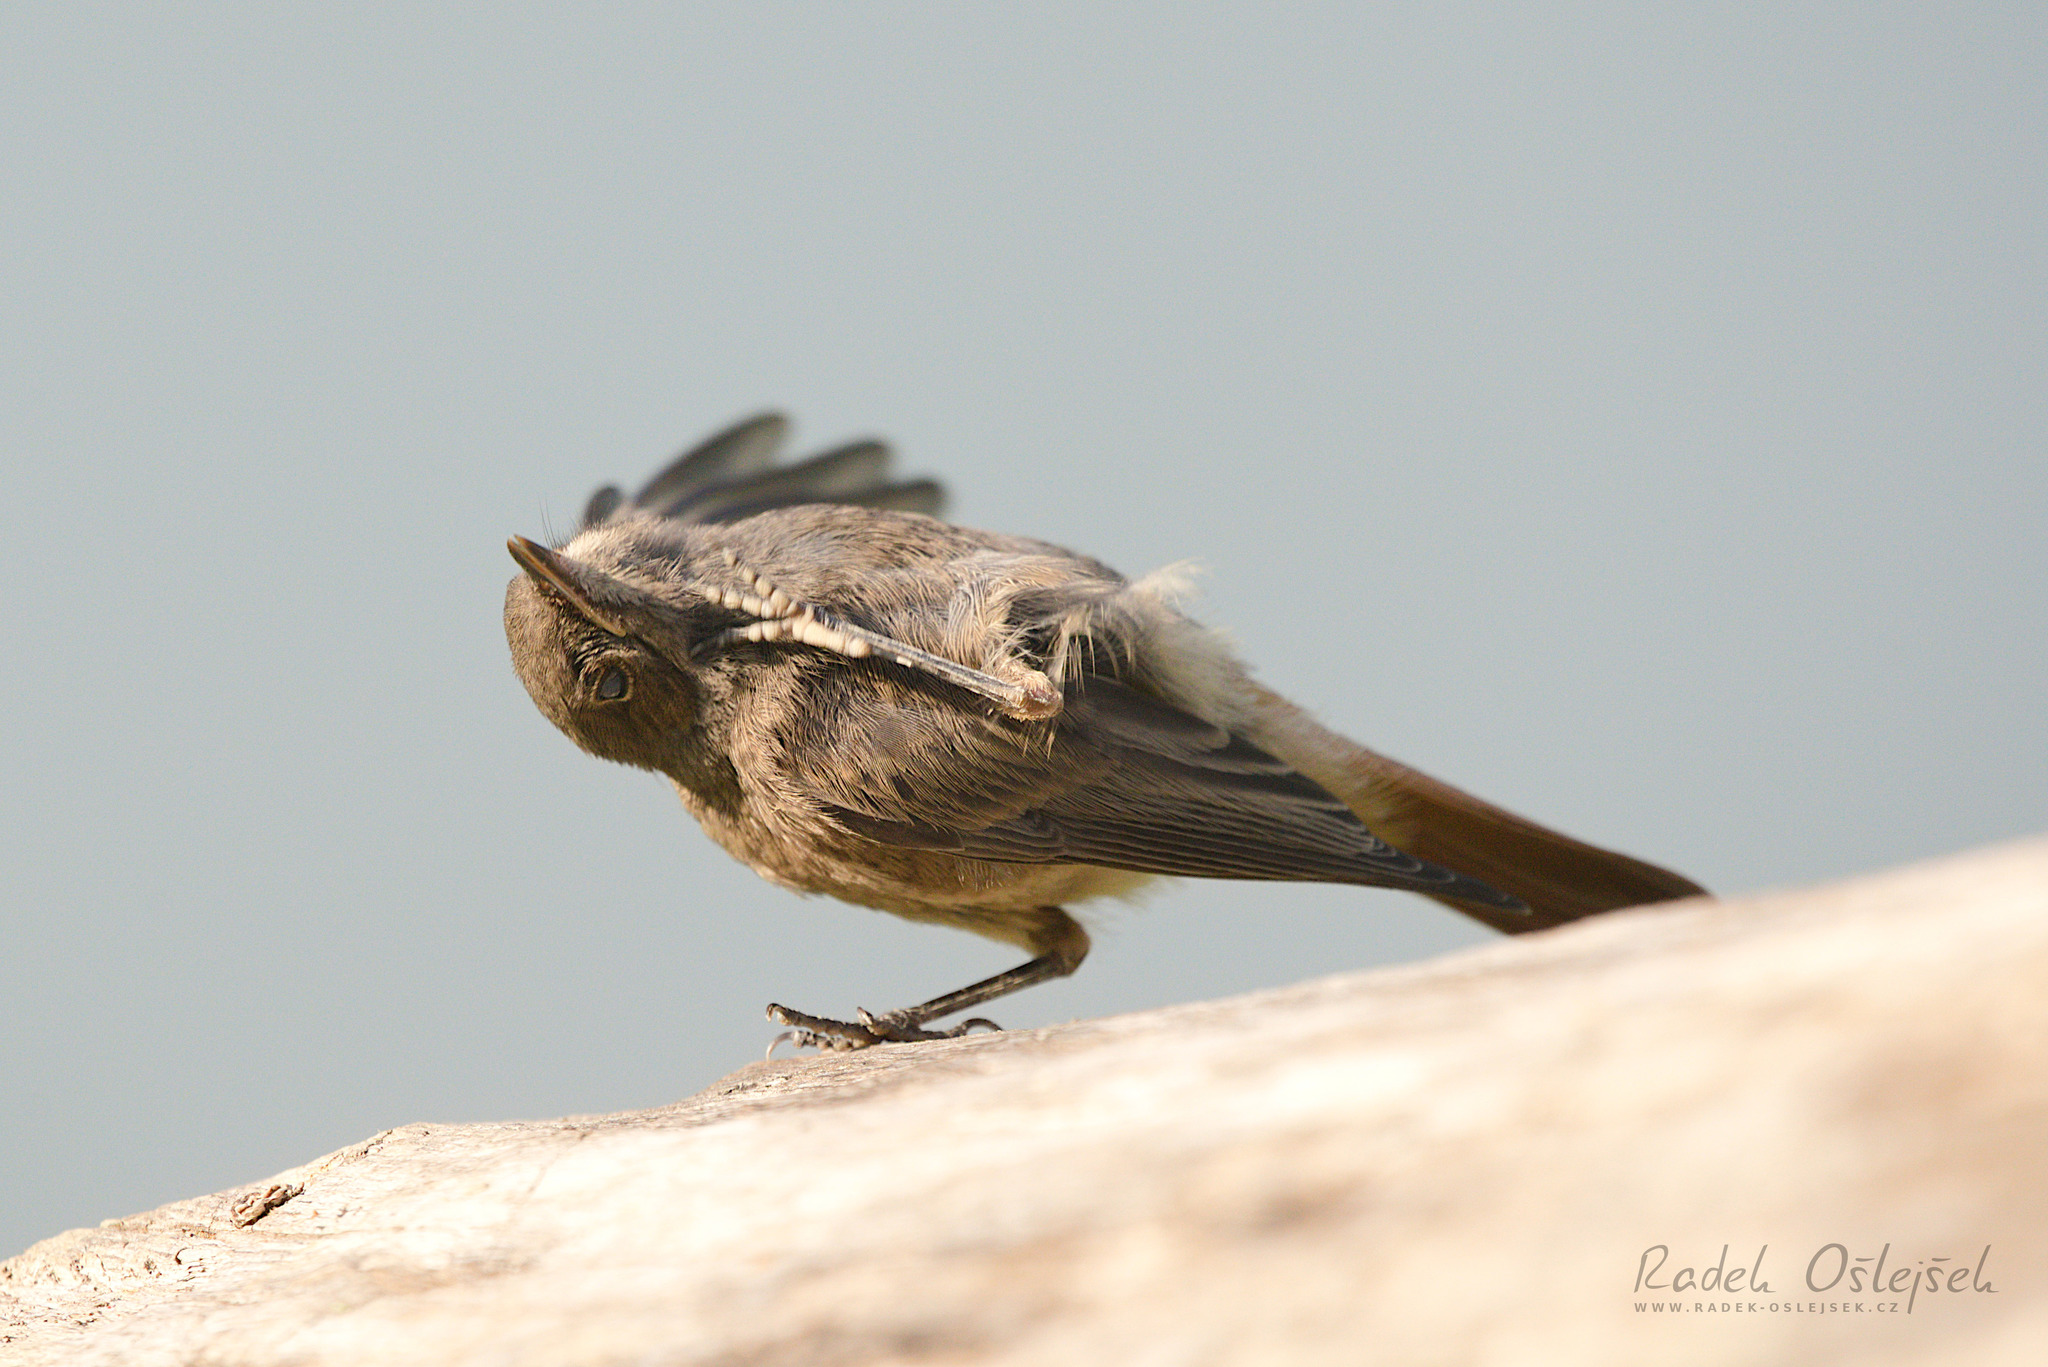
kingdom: Animalia
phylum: Chordata
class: Aves
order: Passeriformes
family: Muscicapidae
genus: Phoenicurus
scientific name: Phoenicurus ochruros
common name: Black redstart
